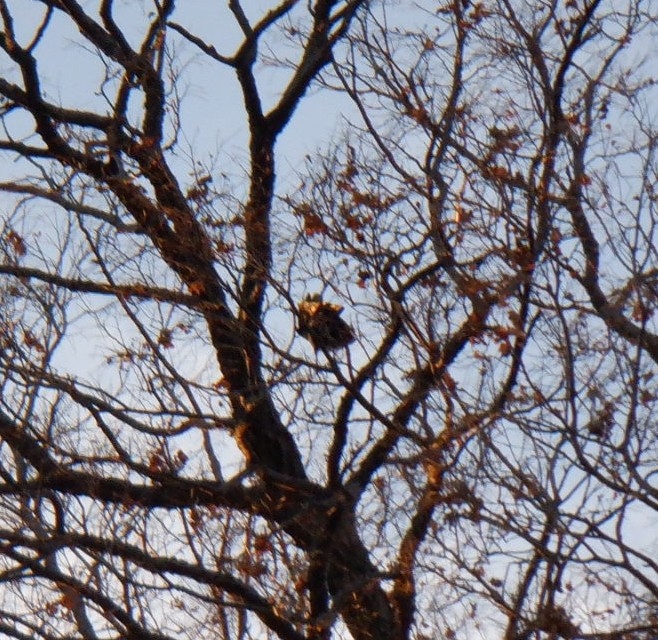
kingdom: Animalia
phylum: Chordata
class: Aves
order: Passeriformes
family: Corvidae
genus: Corvus
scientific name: Corvus brachyrhynchos
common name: American crow
